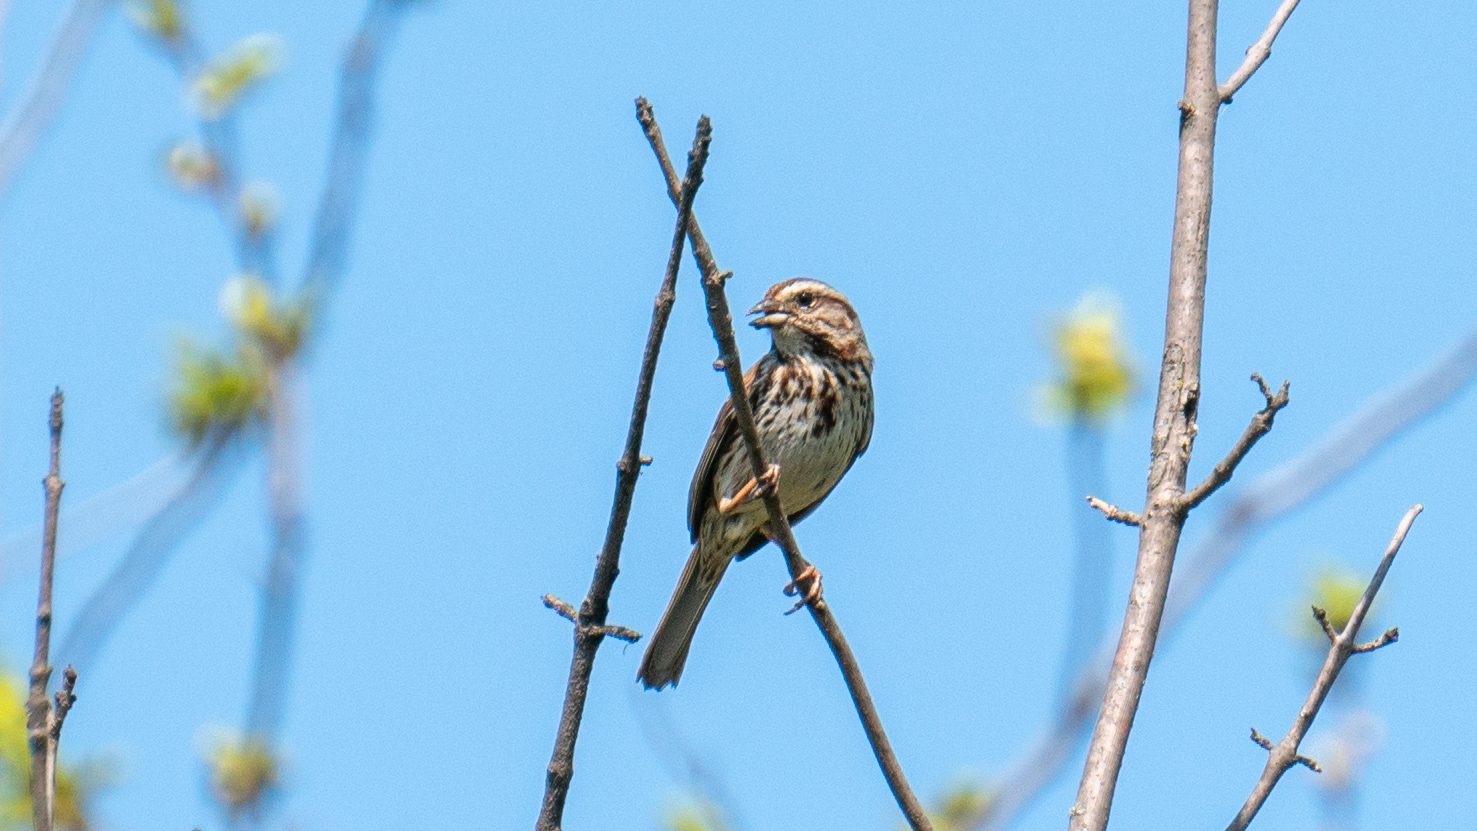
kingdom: Animalia
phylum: Chordata
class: Aves
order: Passeriformes
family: Passerellidae
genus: Melospiza
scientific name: Melospiza melodia
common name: Song sparrow
